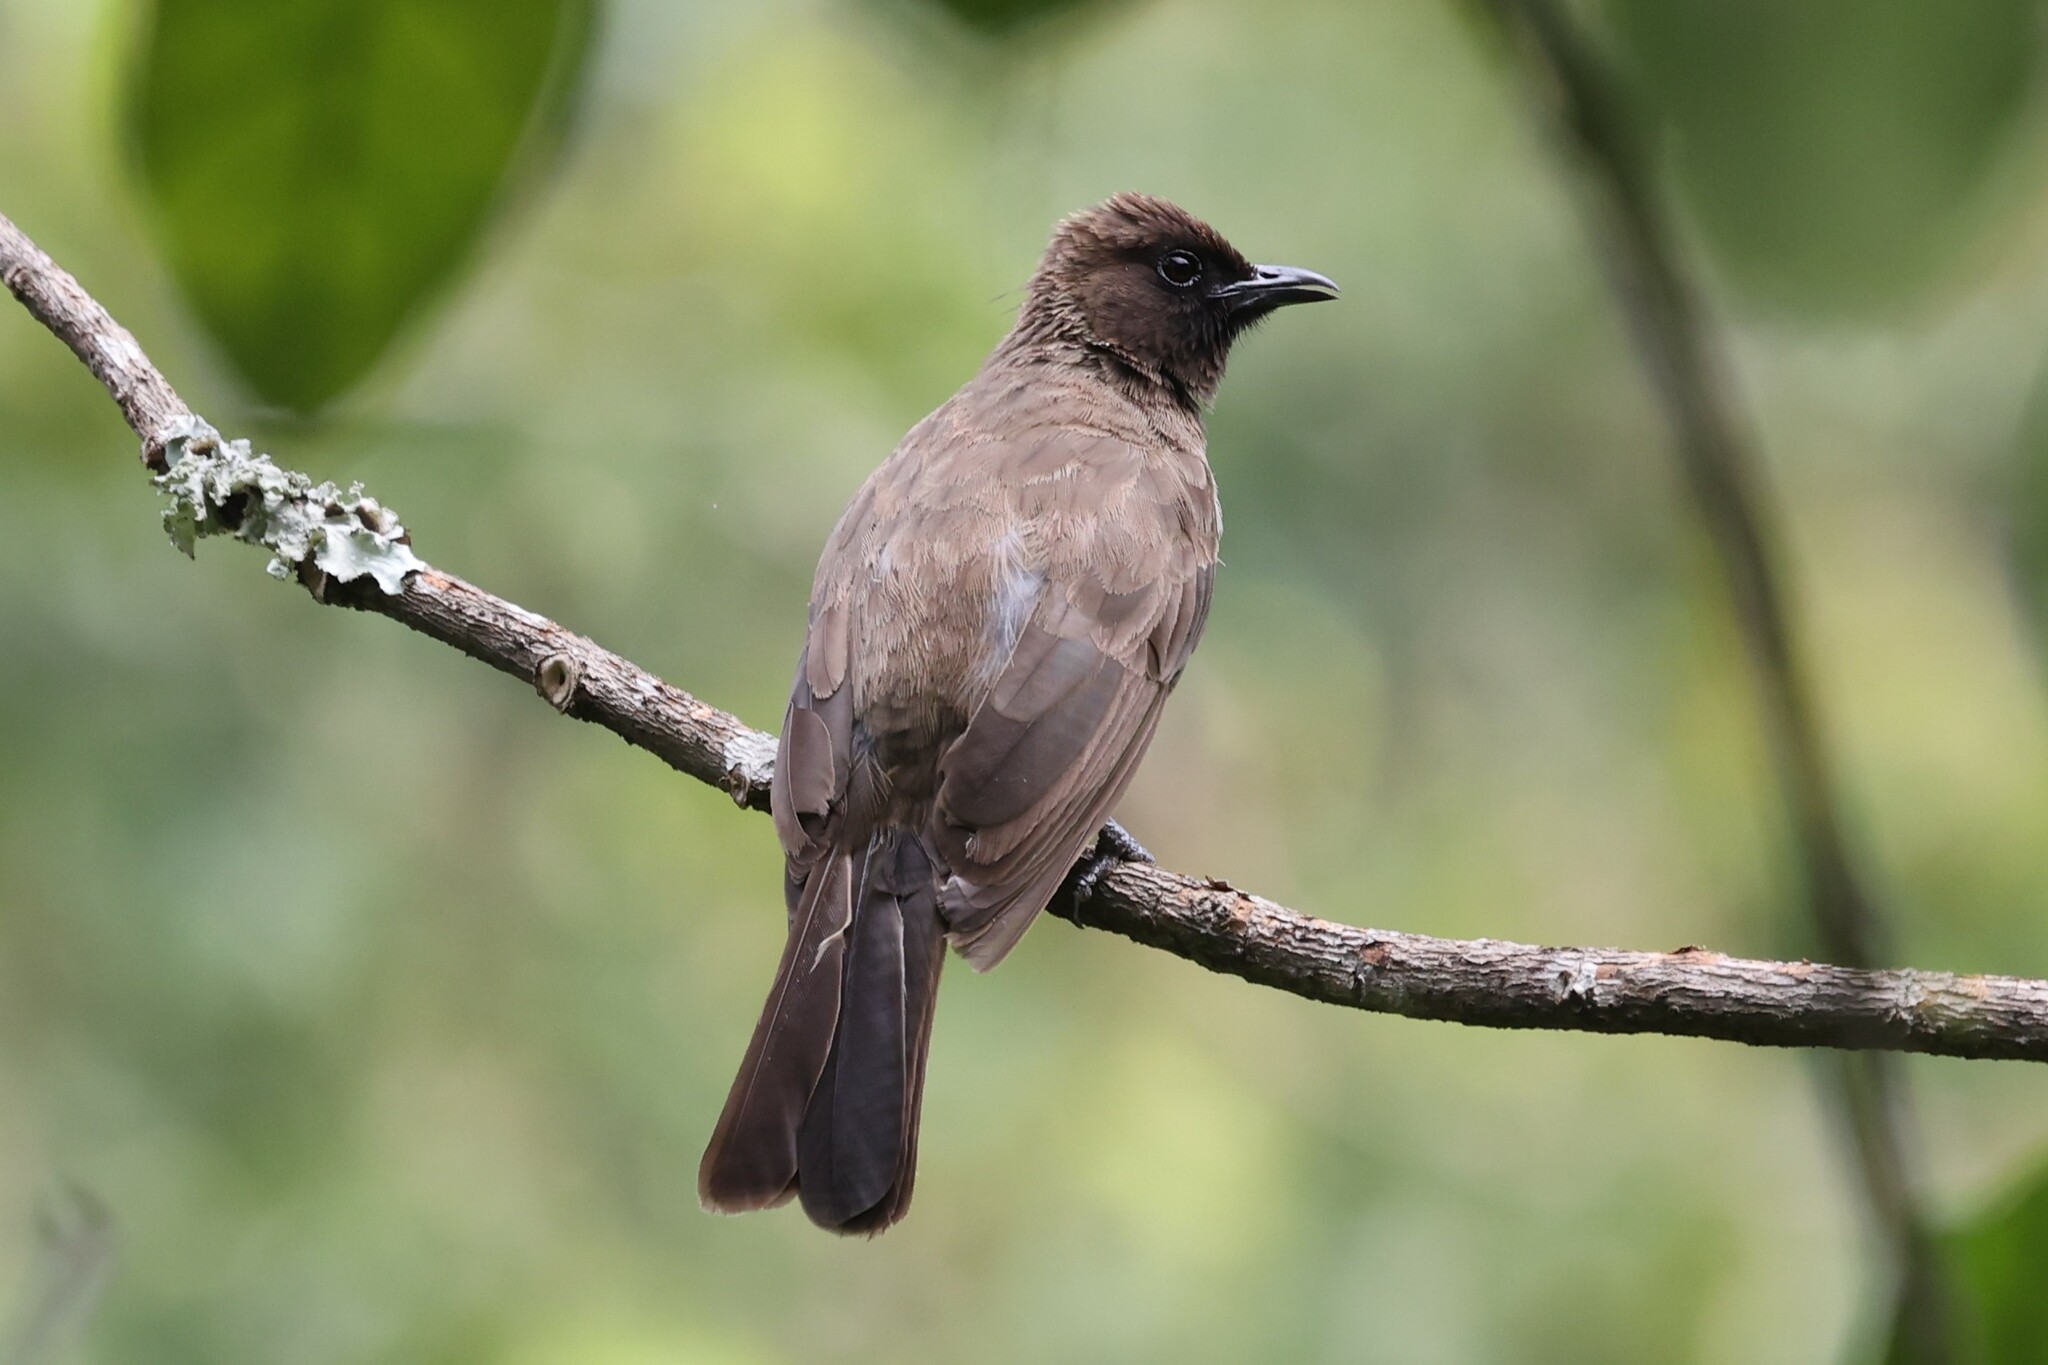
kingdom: Animalia
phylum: Chordata
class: Aves
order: Passeriformes
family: Pycnonotidae
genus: Pycnonotus
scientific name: Pycnonotus barbatus
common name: Common bulbul
